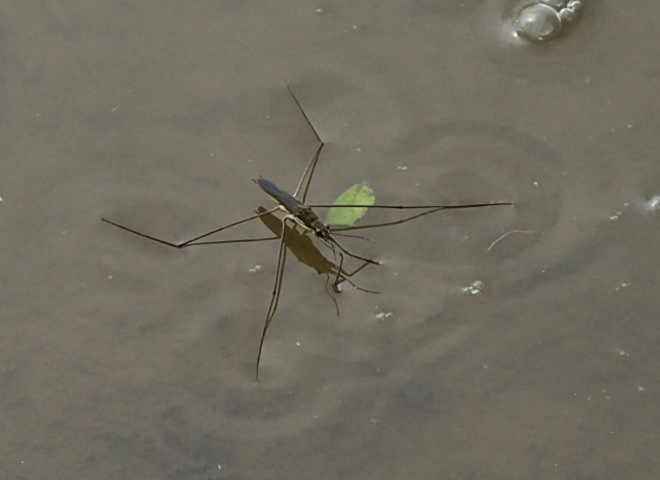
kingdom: Animalia
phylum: Arthropoda
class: Insecta
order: Hemiptera
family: Gerridae
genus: Aquarius
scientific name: Aquarius paludum
